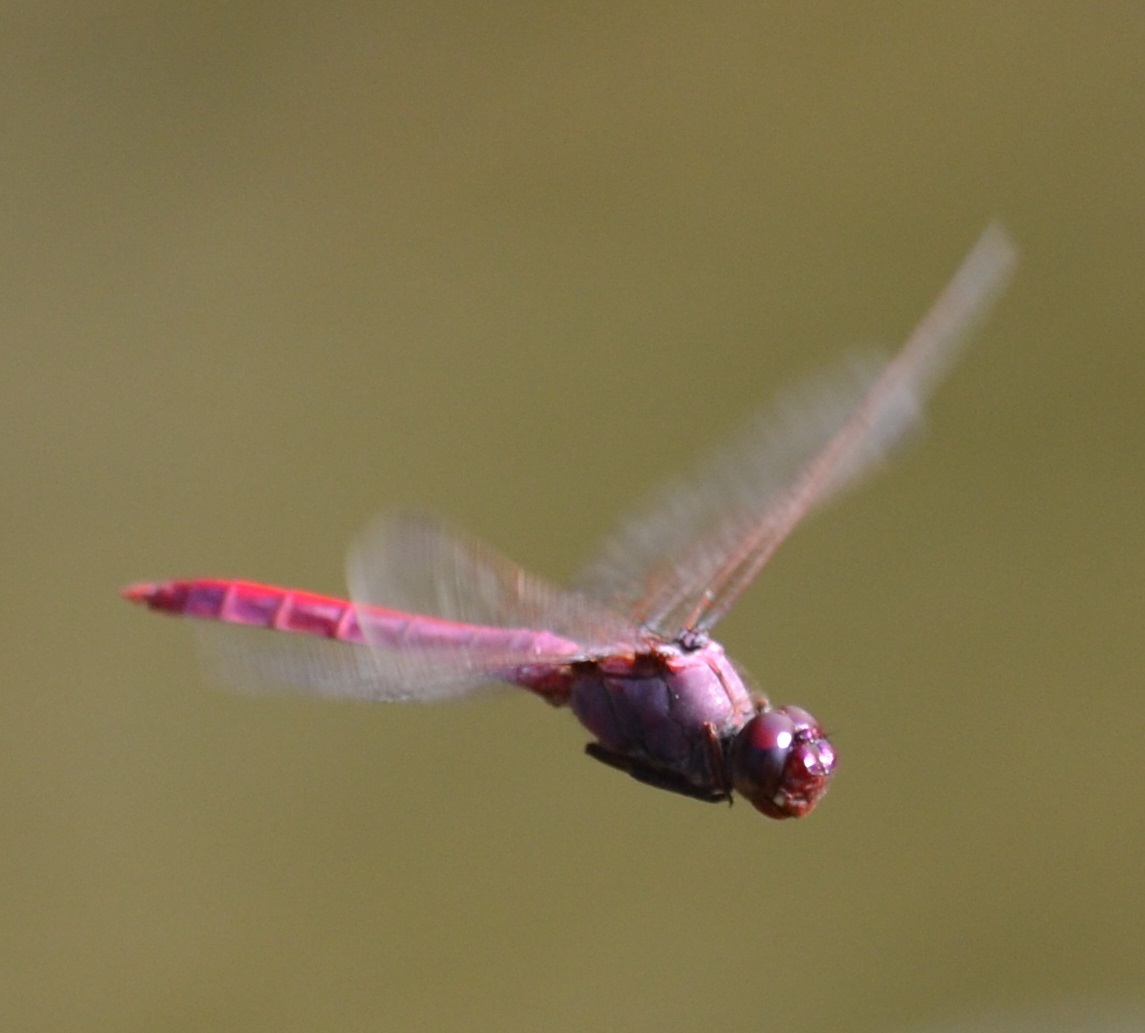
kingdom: Animalia
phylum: Arthropoda
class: Insecta
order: Odonata
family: Libellulidae
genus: Orthemis
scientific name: Orthemis ferruginea
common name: Roseate skimmer
